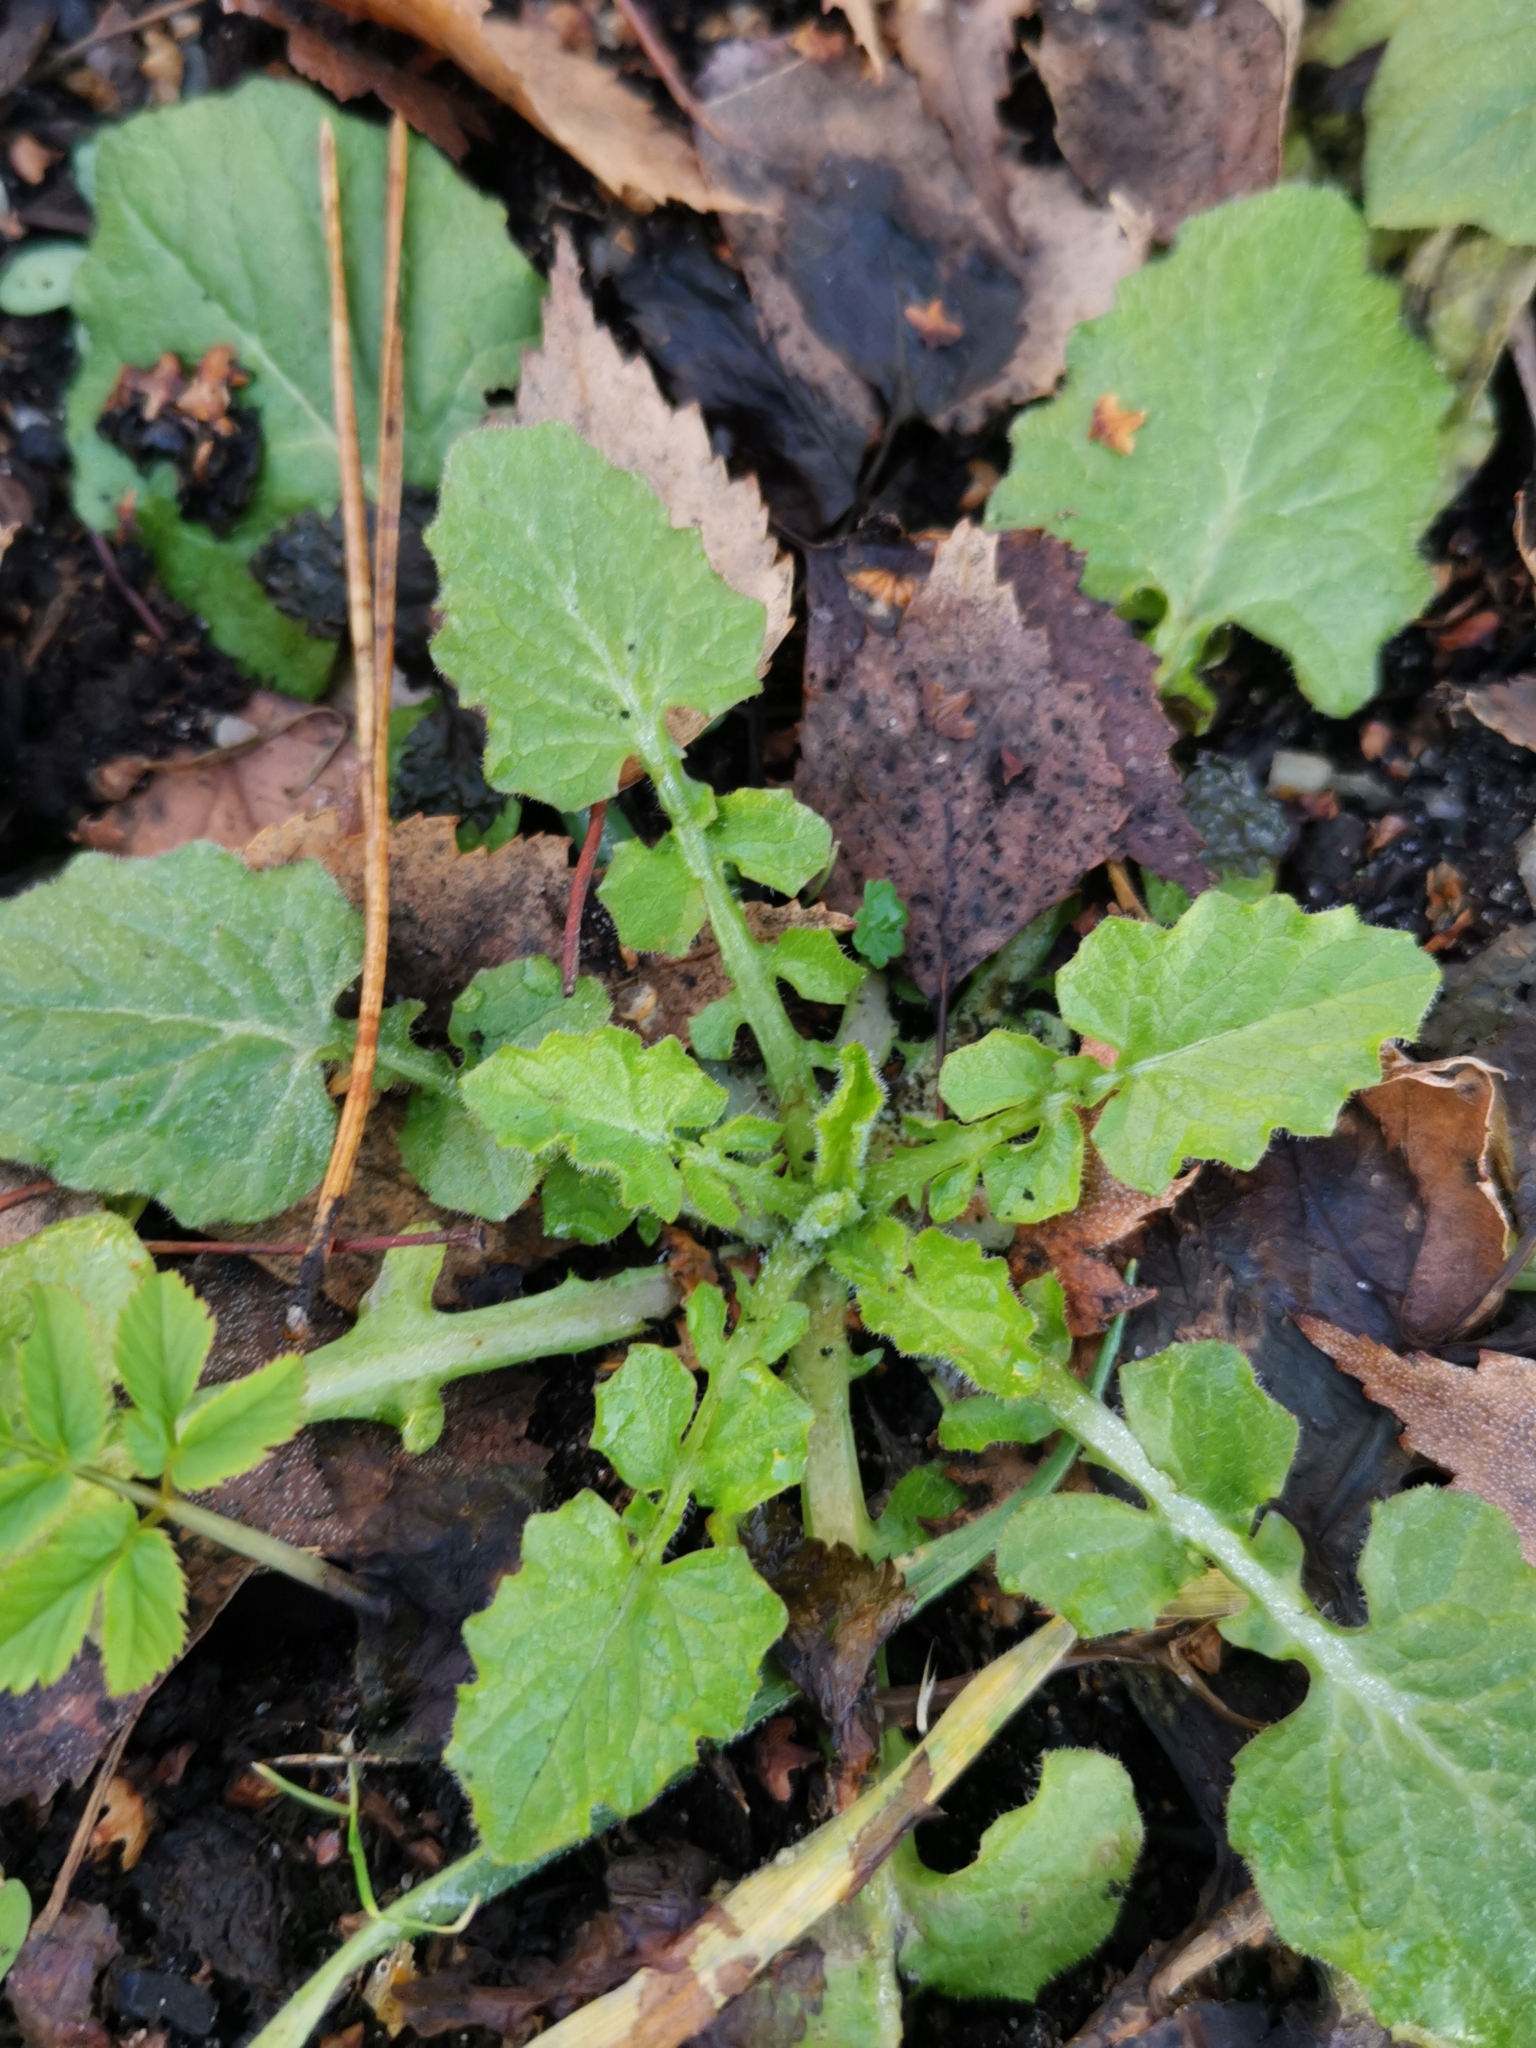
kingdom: Plantae
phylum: Tracheophyta
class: Magnoliopsida
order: Asterales
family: Asteraceae
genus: Lapsana
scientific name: Lapsana communis
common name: Nipplewort
